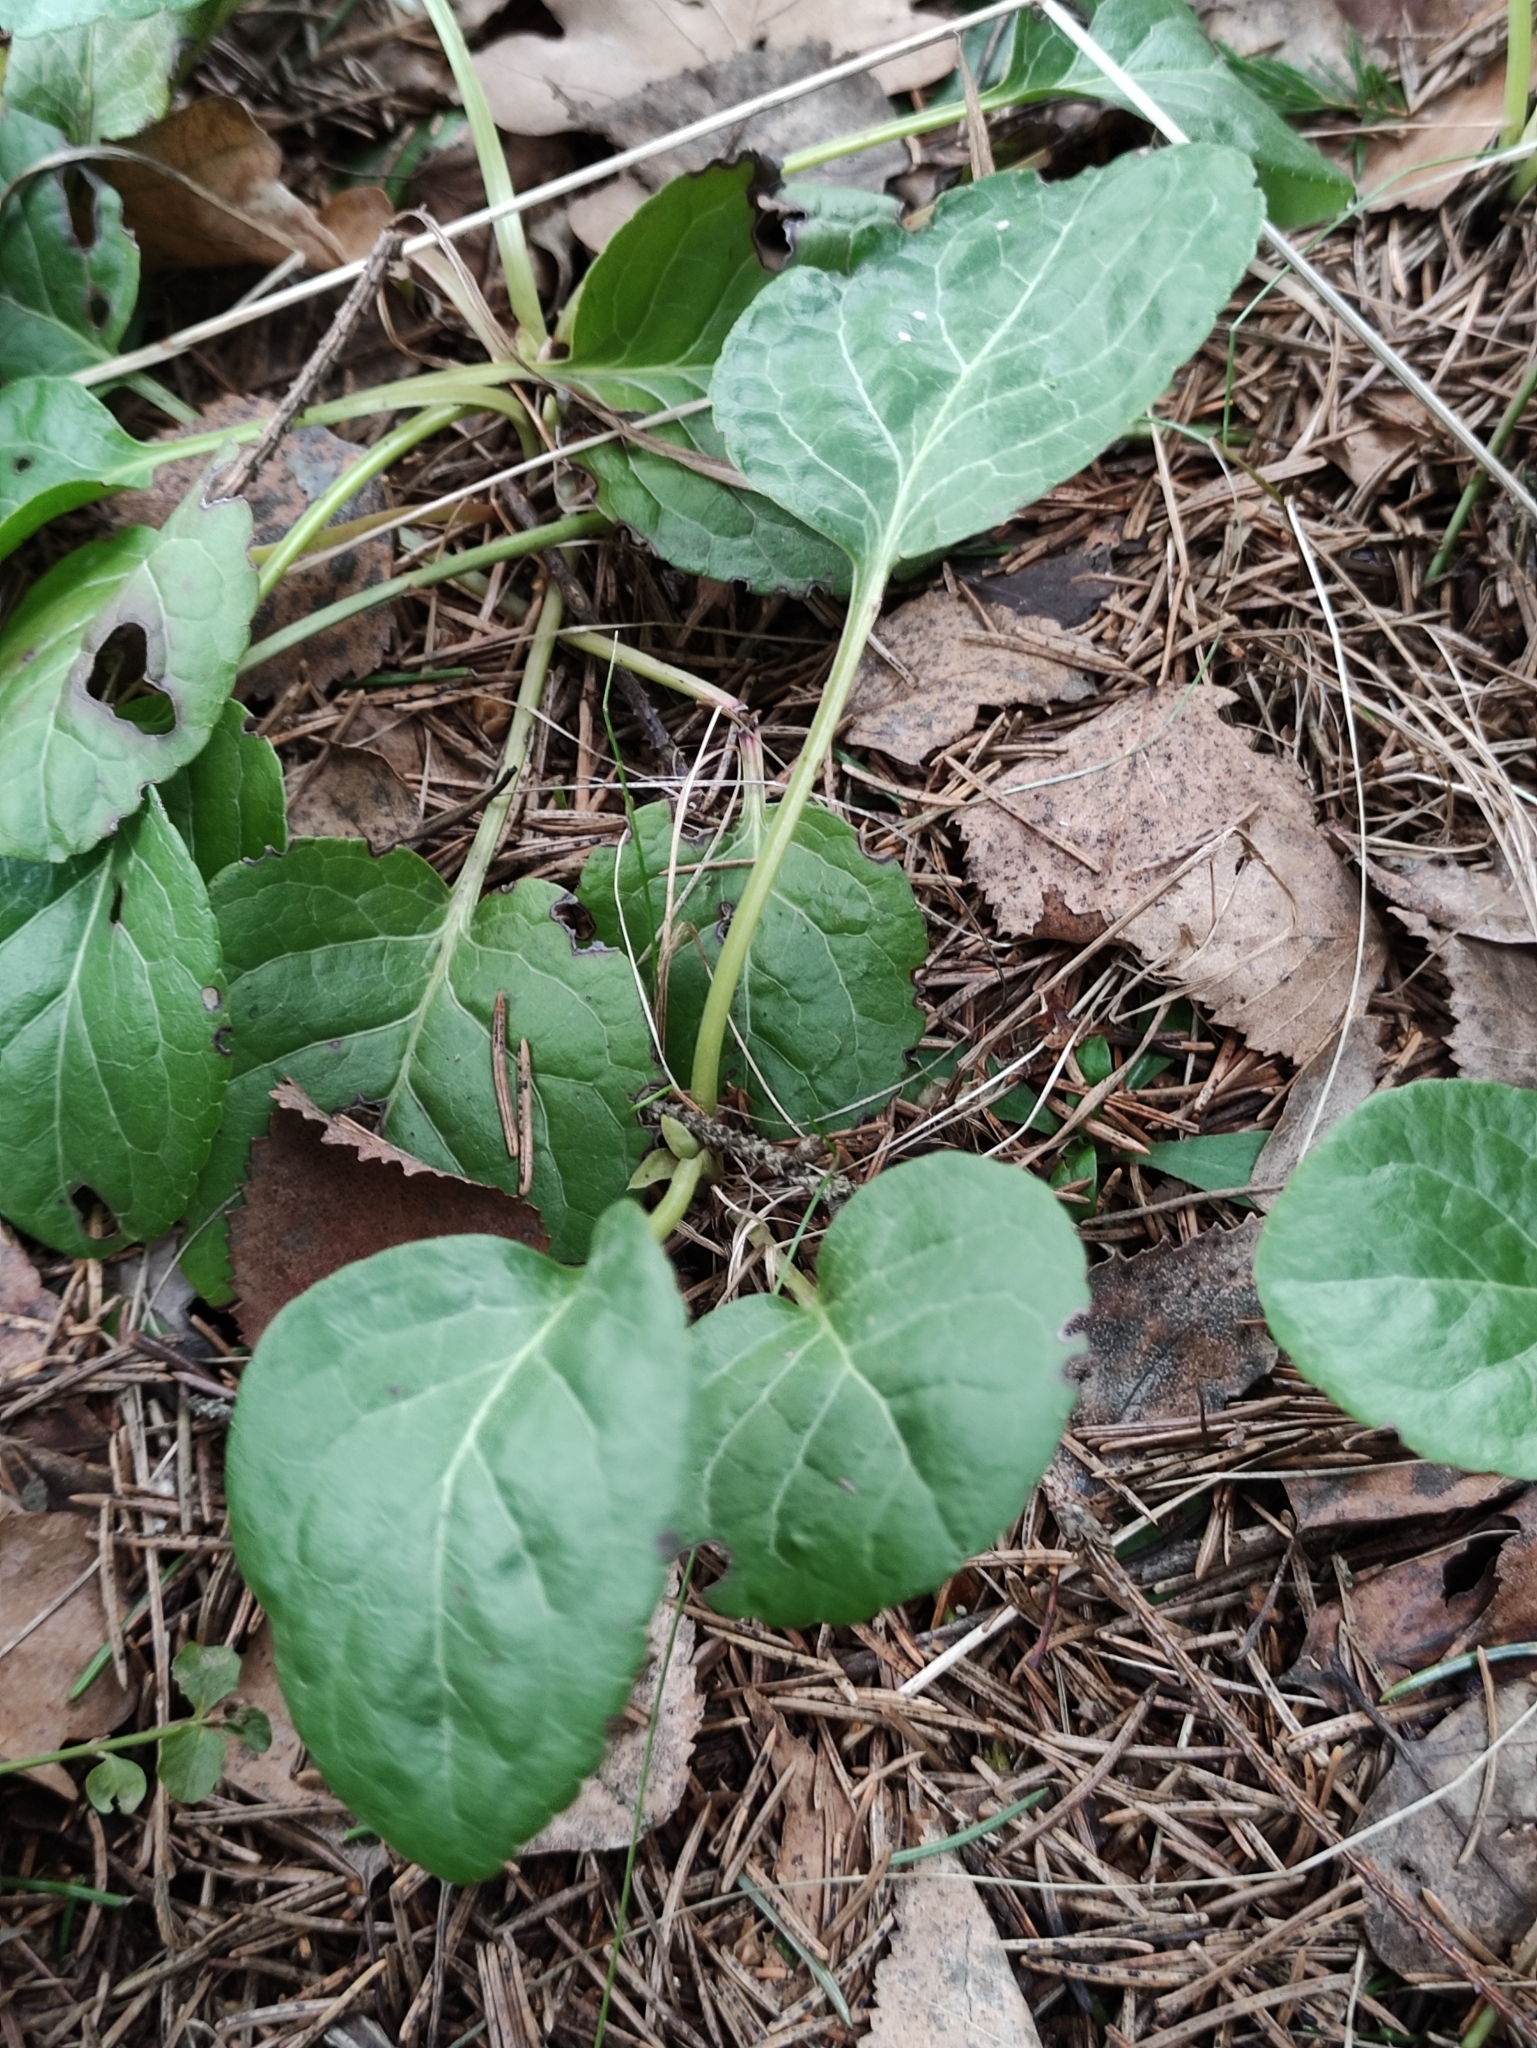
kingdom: Plantae
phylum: Tracheophyta
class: Magnoliopsida
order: Ericales
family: Ericaceae
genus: Pyrola
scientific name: Pyrola minor
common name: Common wintergreen
